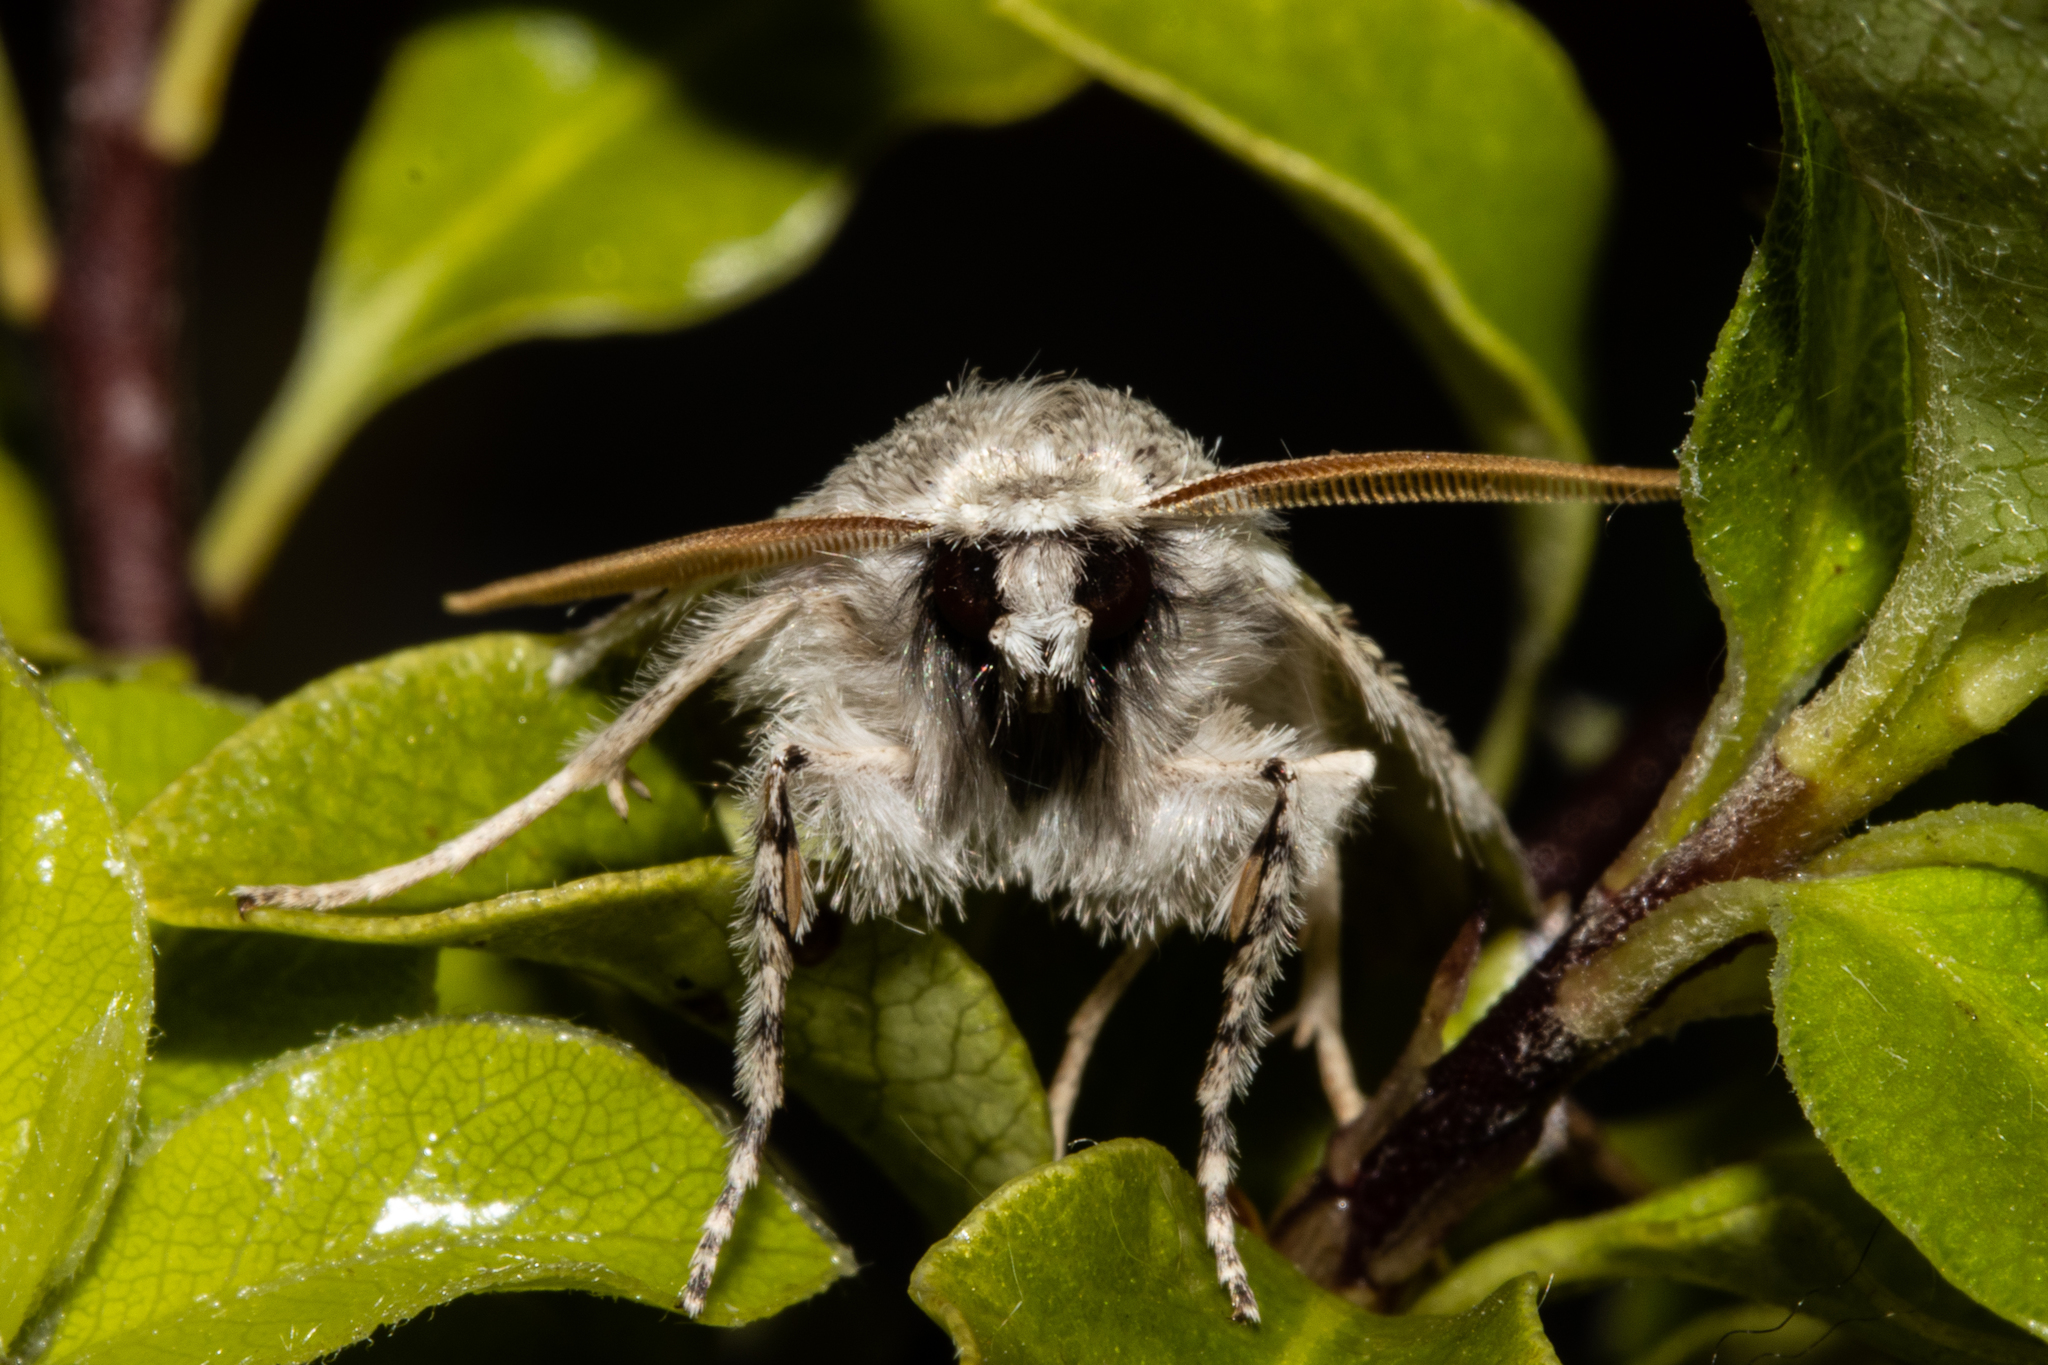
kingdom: Animalia
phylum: Arthropoda
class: Insecta
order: Lepidoptera
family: Geometridae
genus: Declana
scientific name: Declana floccosa
